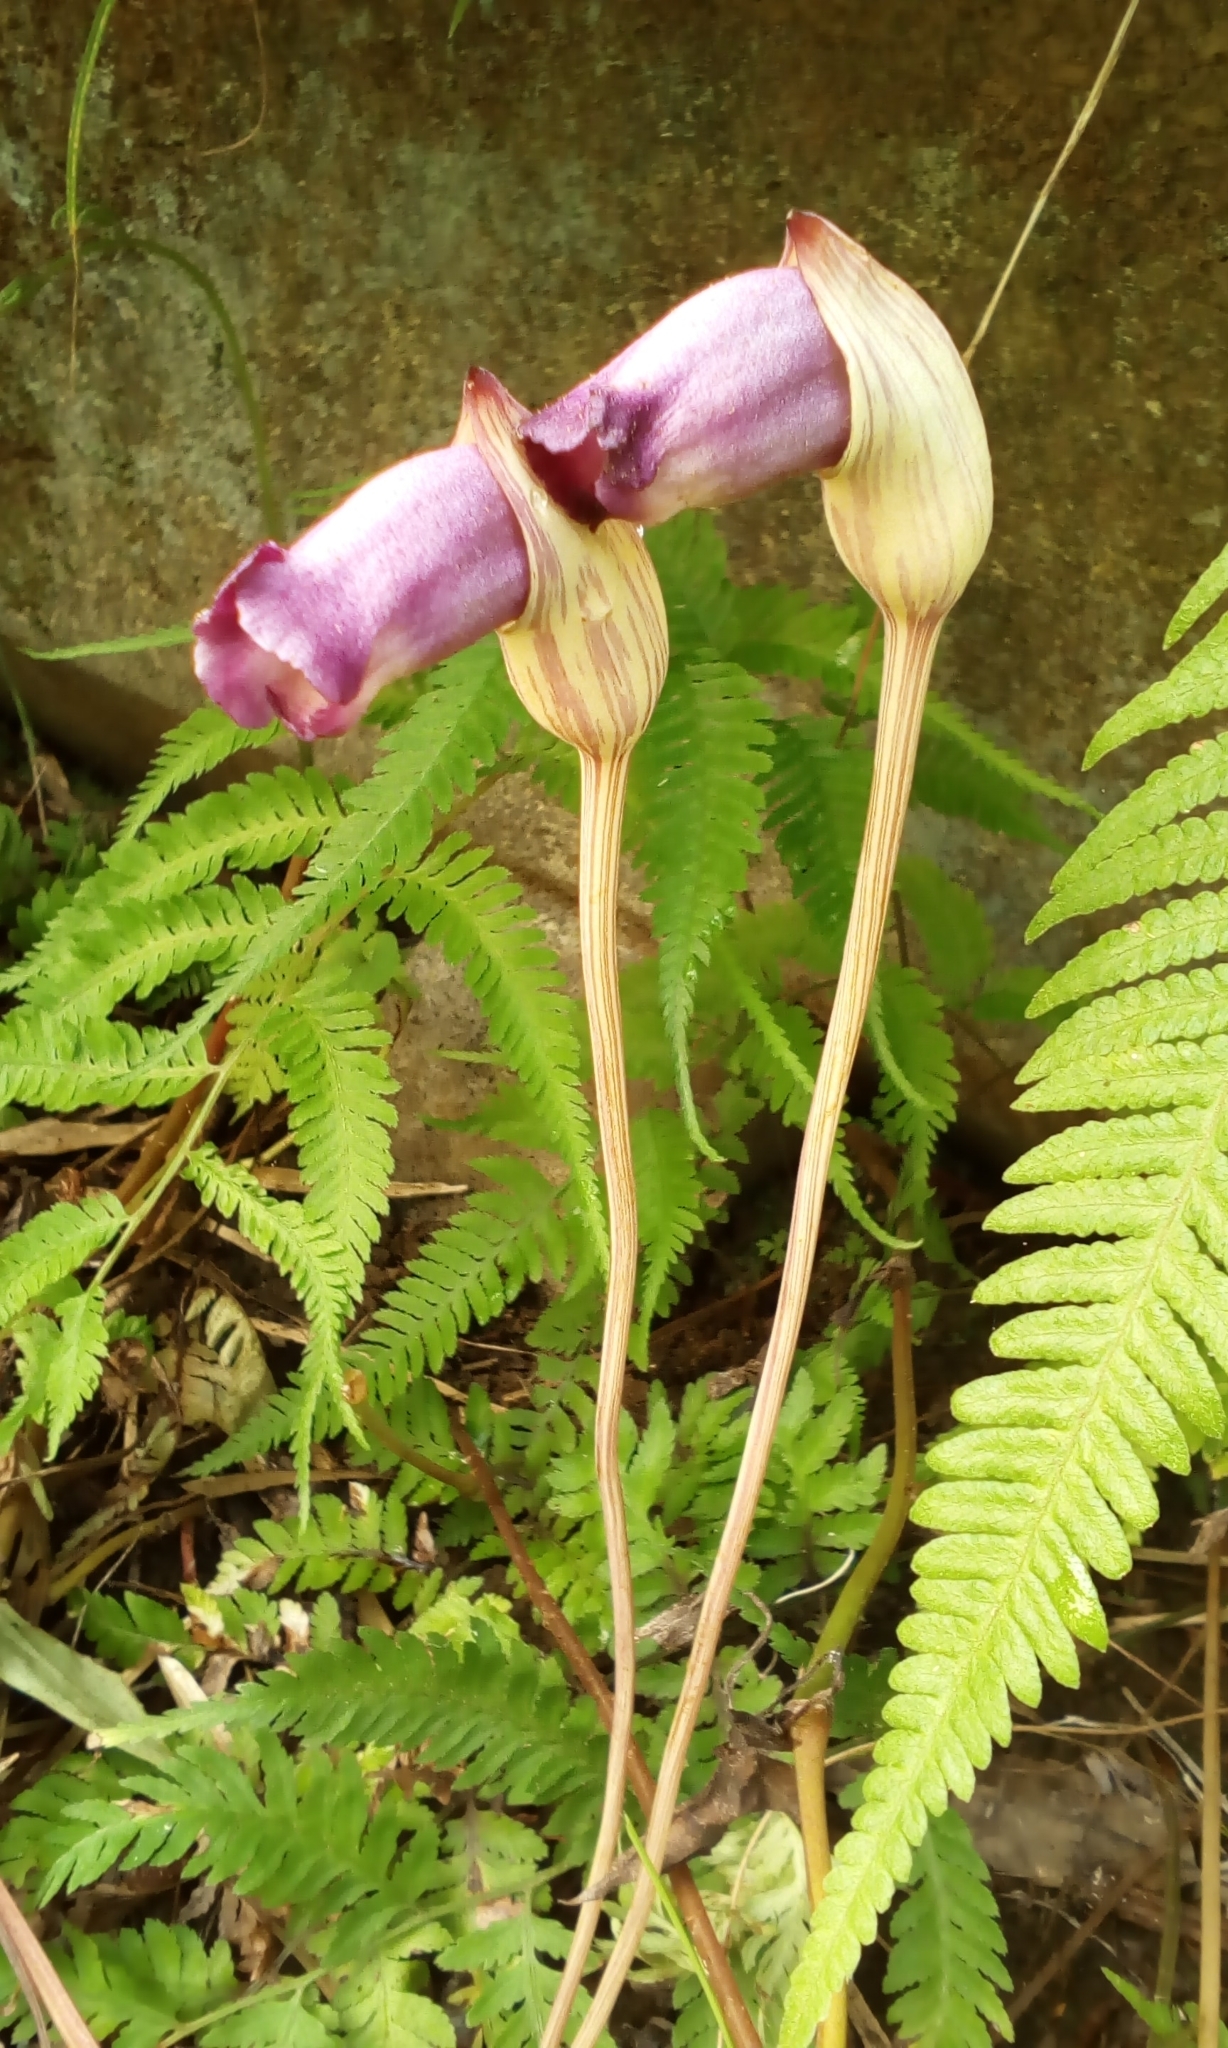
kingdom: Plantae
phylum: Tracheophyta
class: Magnoliopsida
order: Lamiales
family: Orobanchaceae
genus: Aeginetia
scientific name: Aeginetia indica
